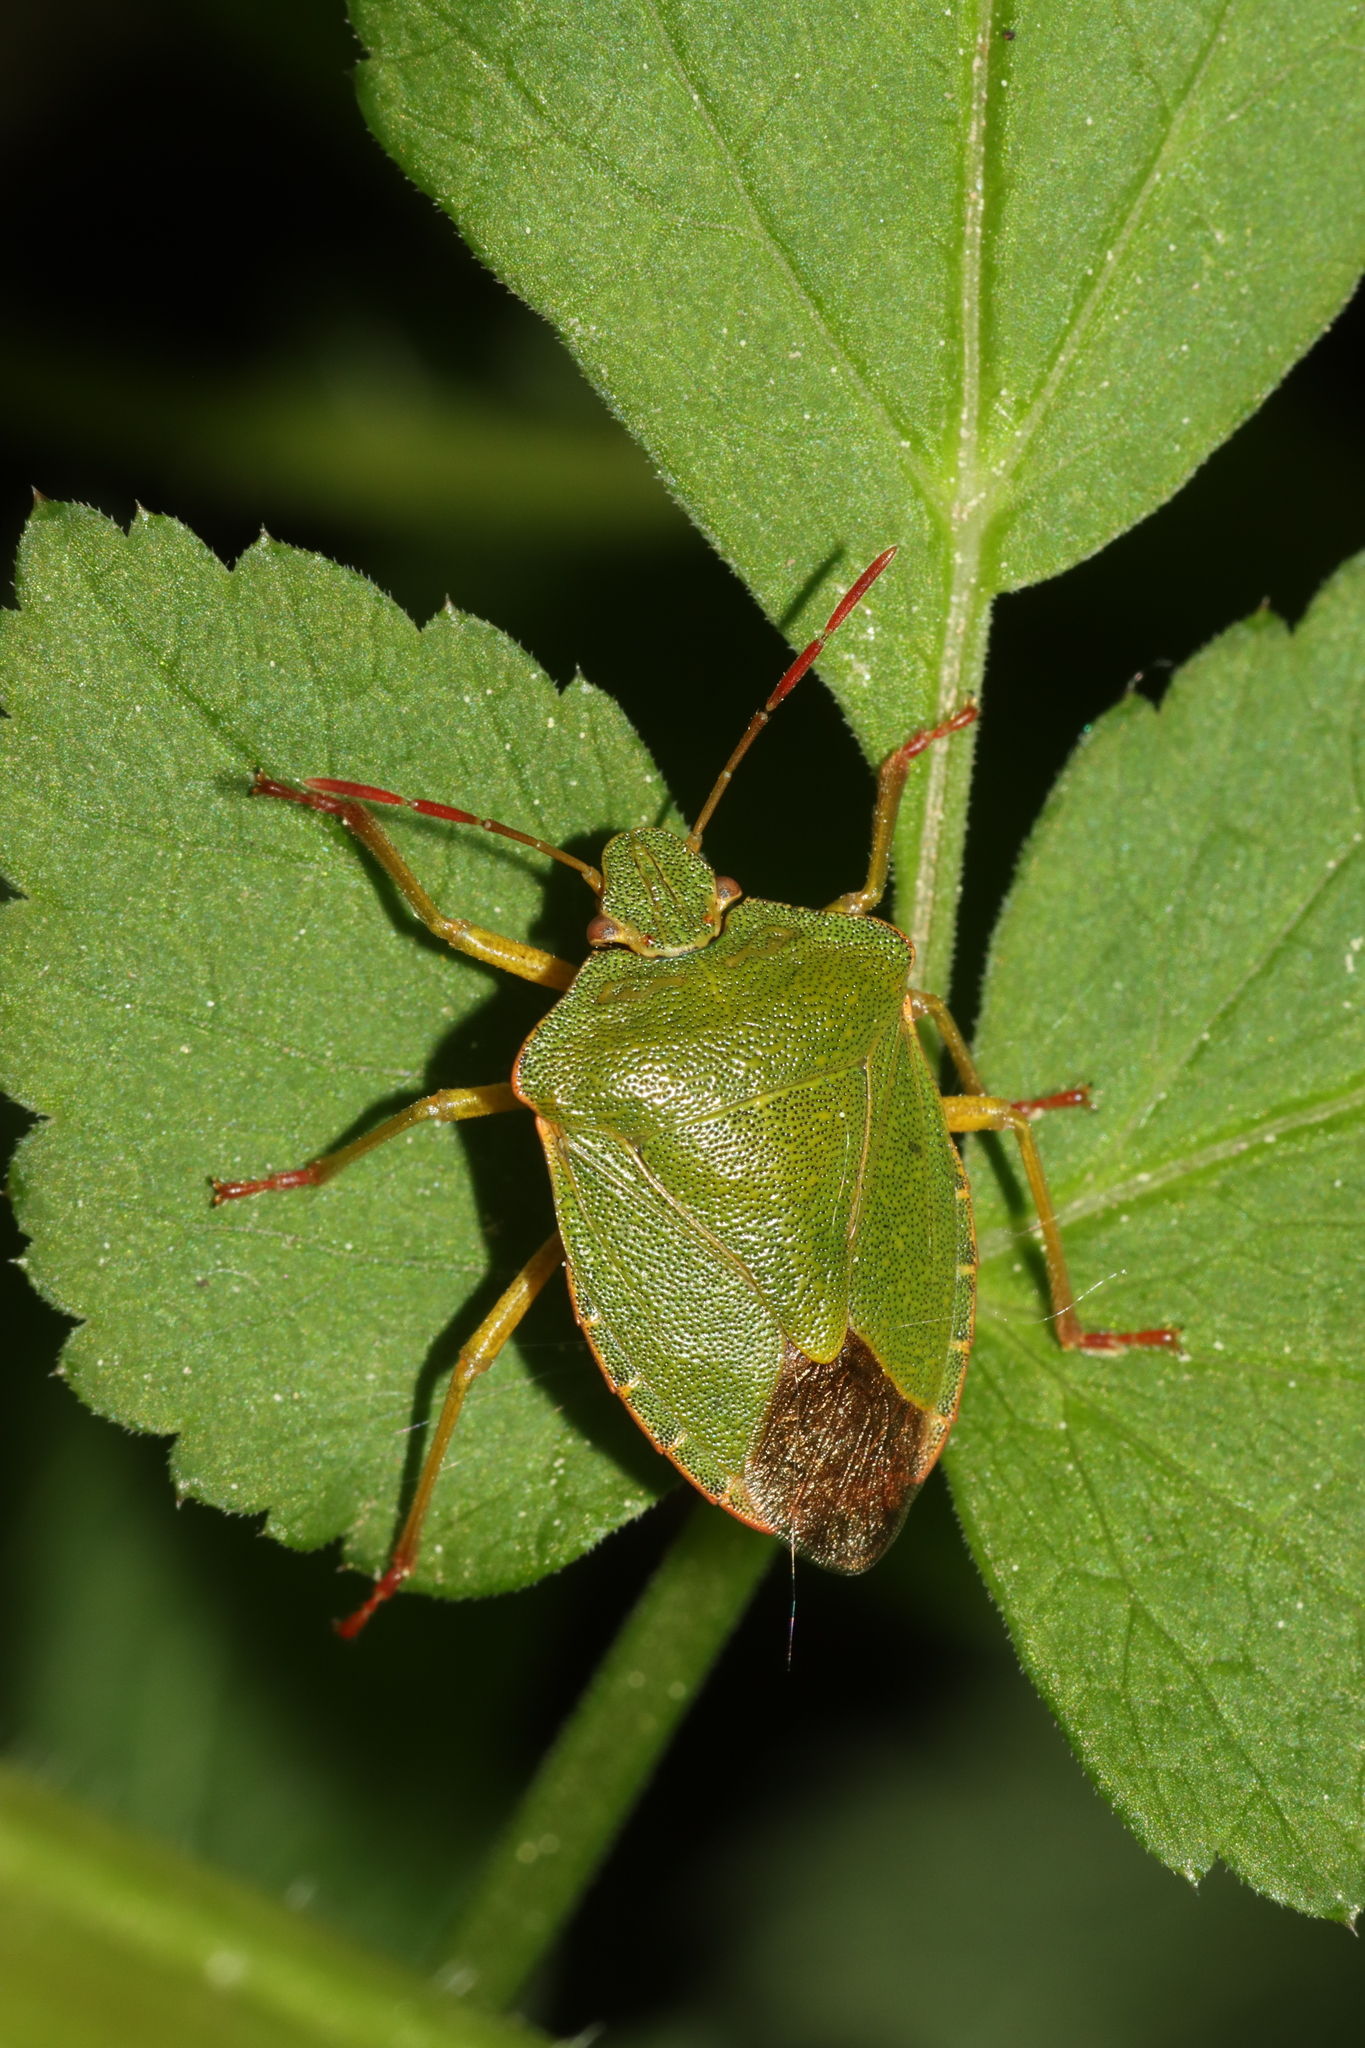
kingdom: Animalia
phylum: Arthropoda
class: Insecta
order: Hemiptera
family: Pentatomidae
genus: Palomena
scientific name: Palomena prasina
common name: Green shieldbug
